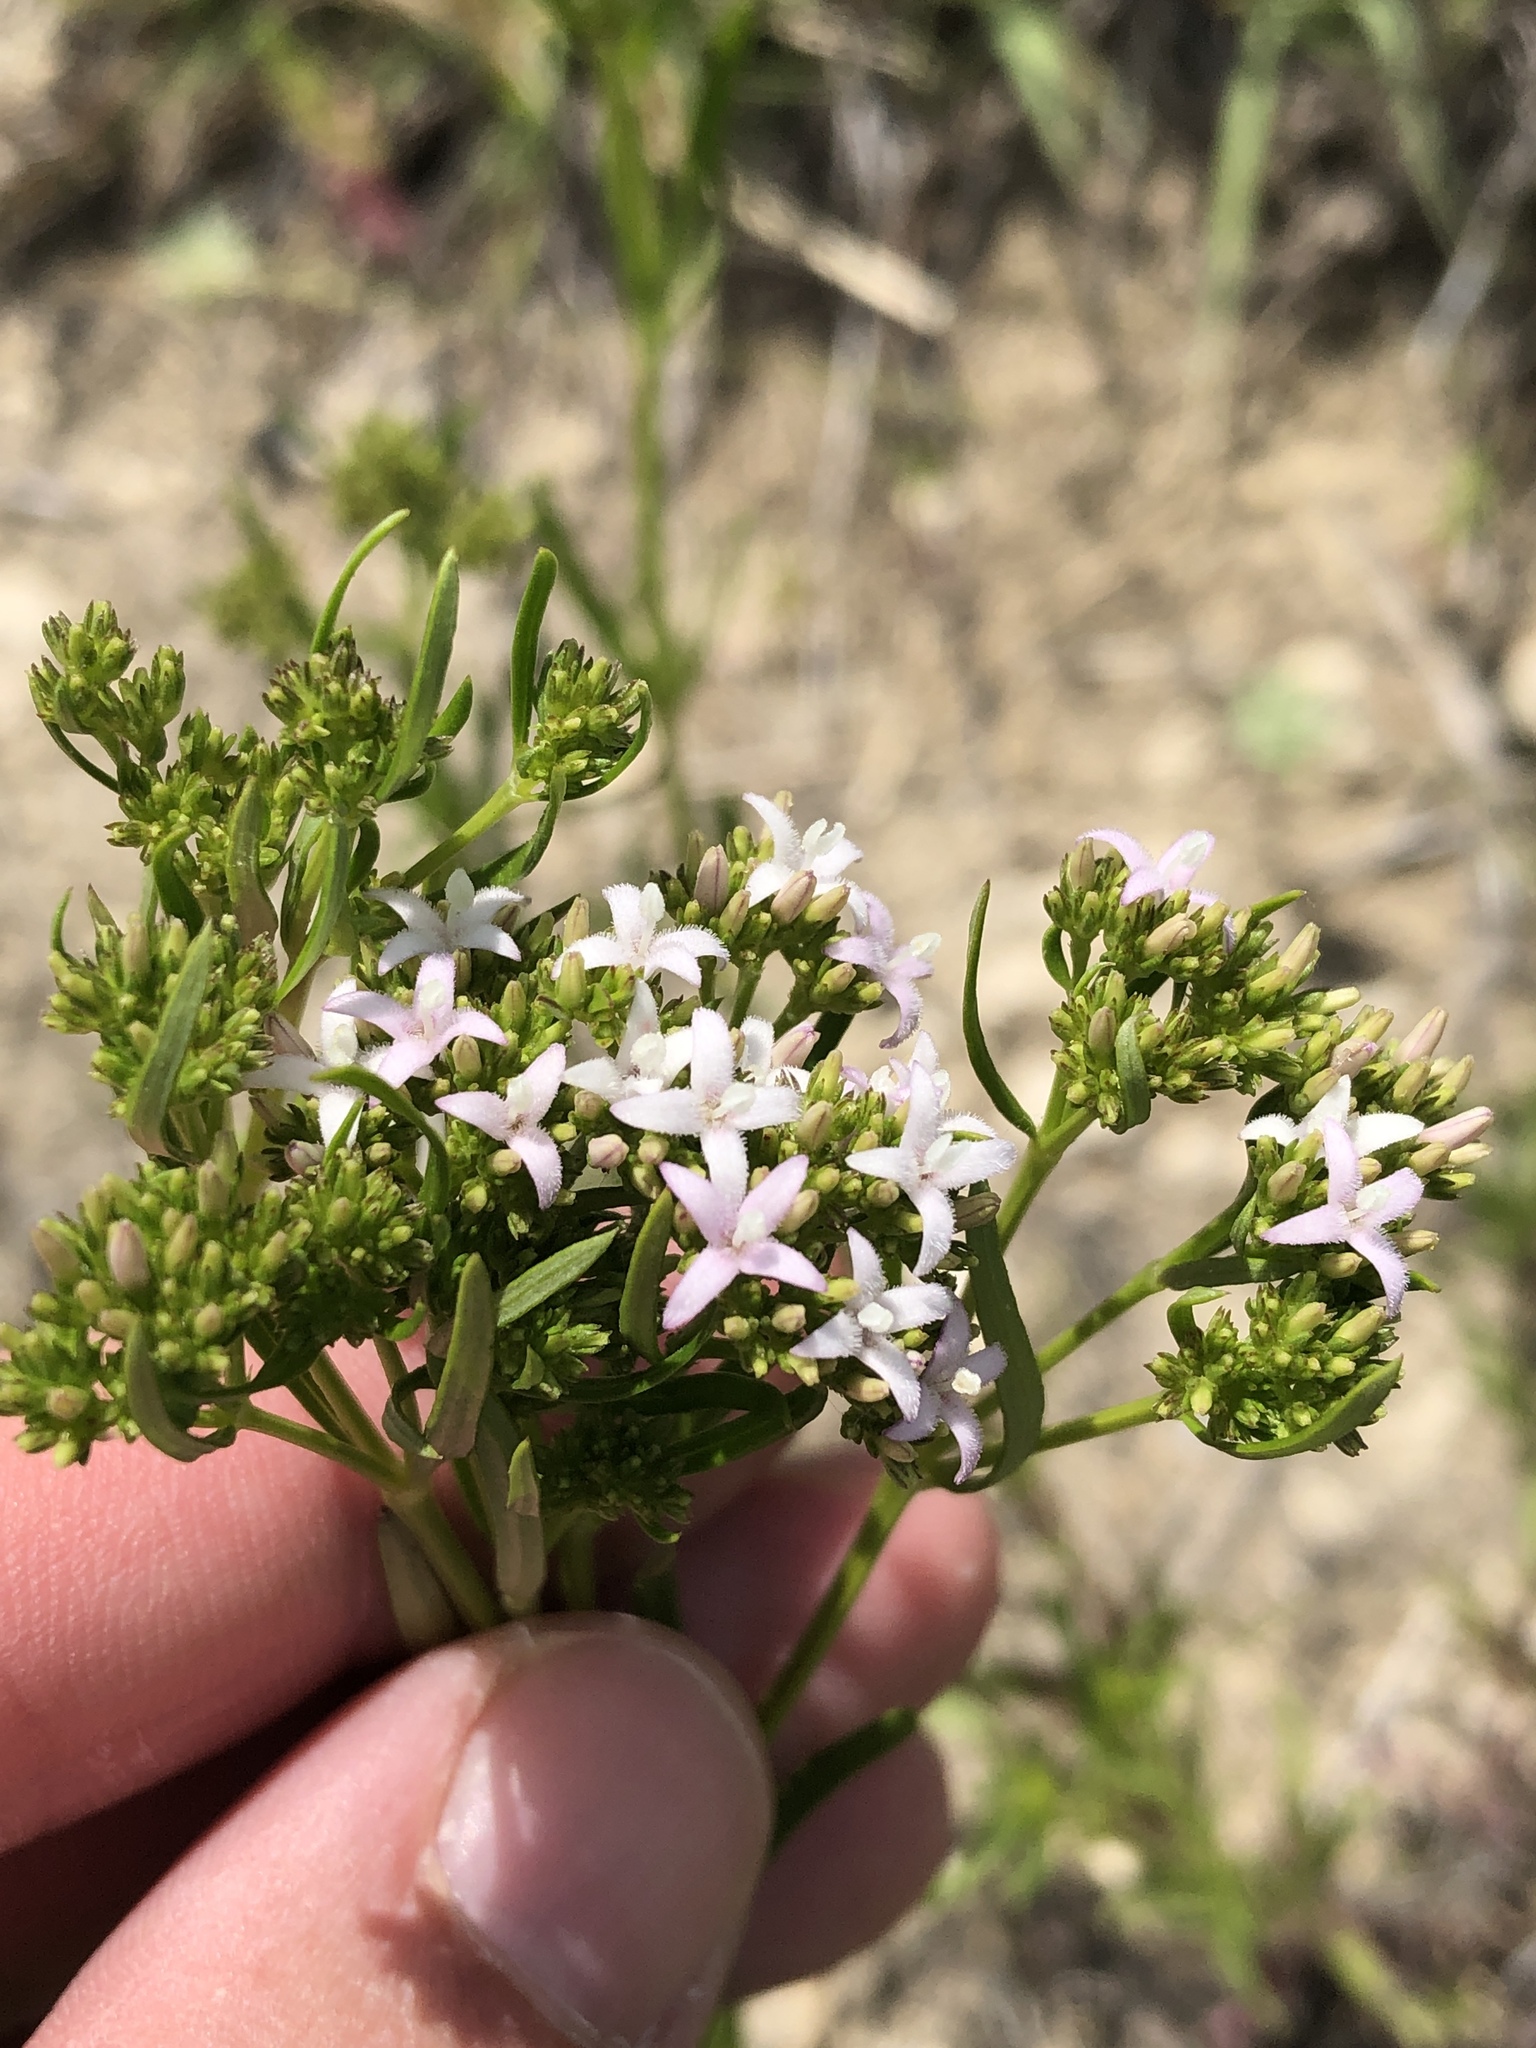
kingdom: Plantae
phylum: Tracheophyta
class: Magnoliopsida
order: Gentianales
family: Rubiaceae
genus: Stenaria
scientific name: Stenaria nigricans
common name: Diamondflowers
